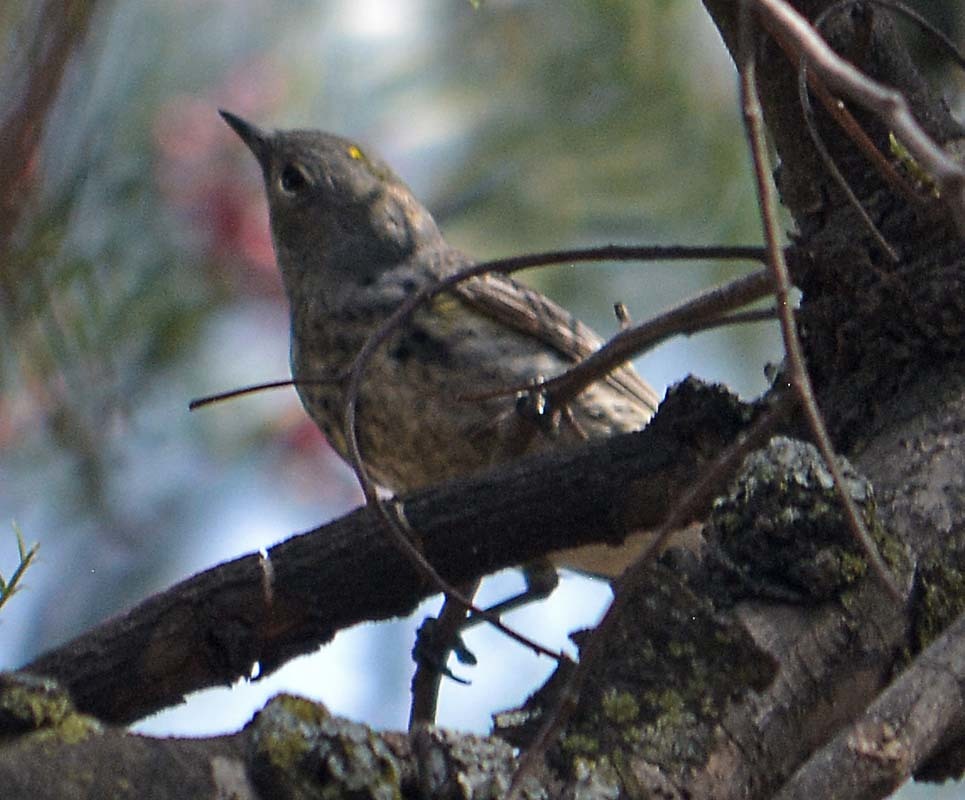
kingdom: Animalia
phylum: Chordata
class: Aves
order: Passeriformes
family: Parulidae
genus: Setophaga
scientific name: Setophaga coronata
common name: Myrtle warbler
